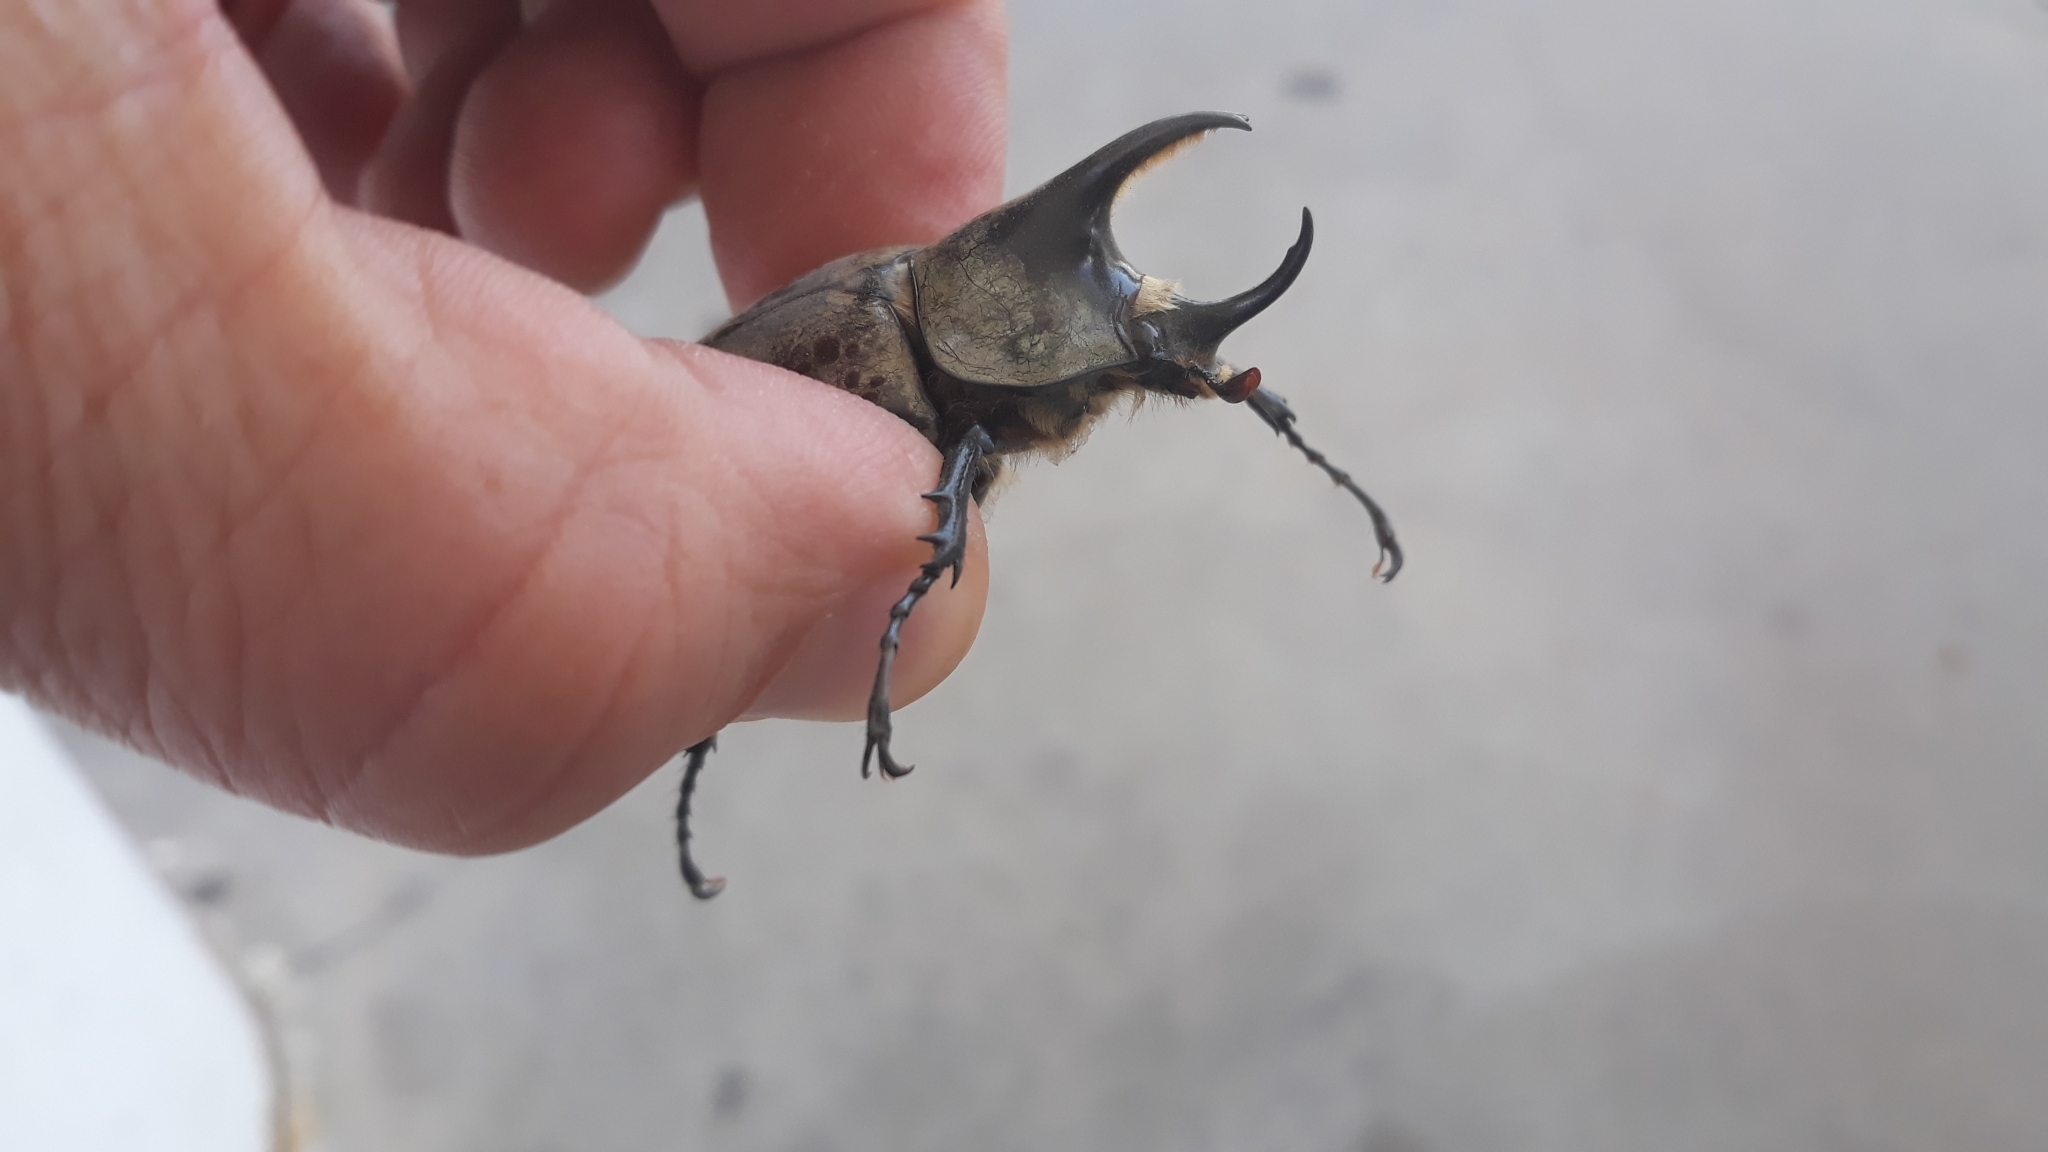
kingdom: Animalia
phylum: Arthropoda
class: Insecta
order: Coleoptera
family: Scarabaeidae
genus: Dynastes
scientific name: Dynastes grantii
